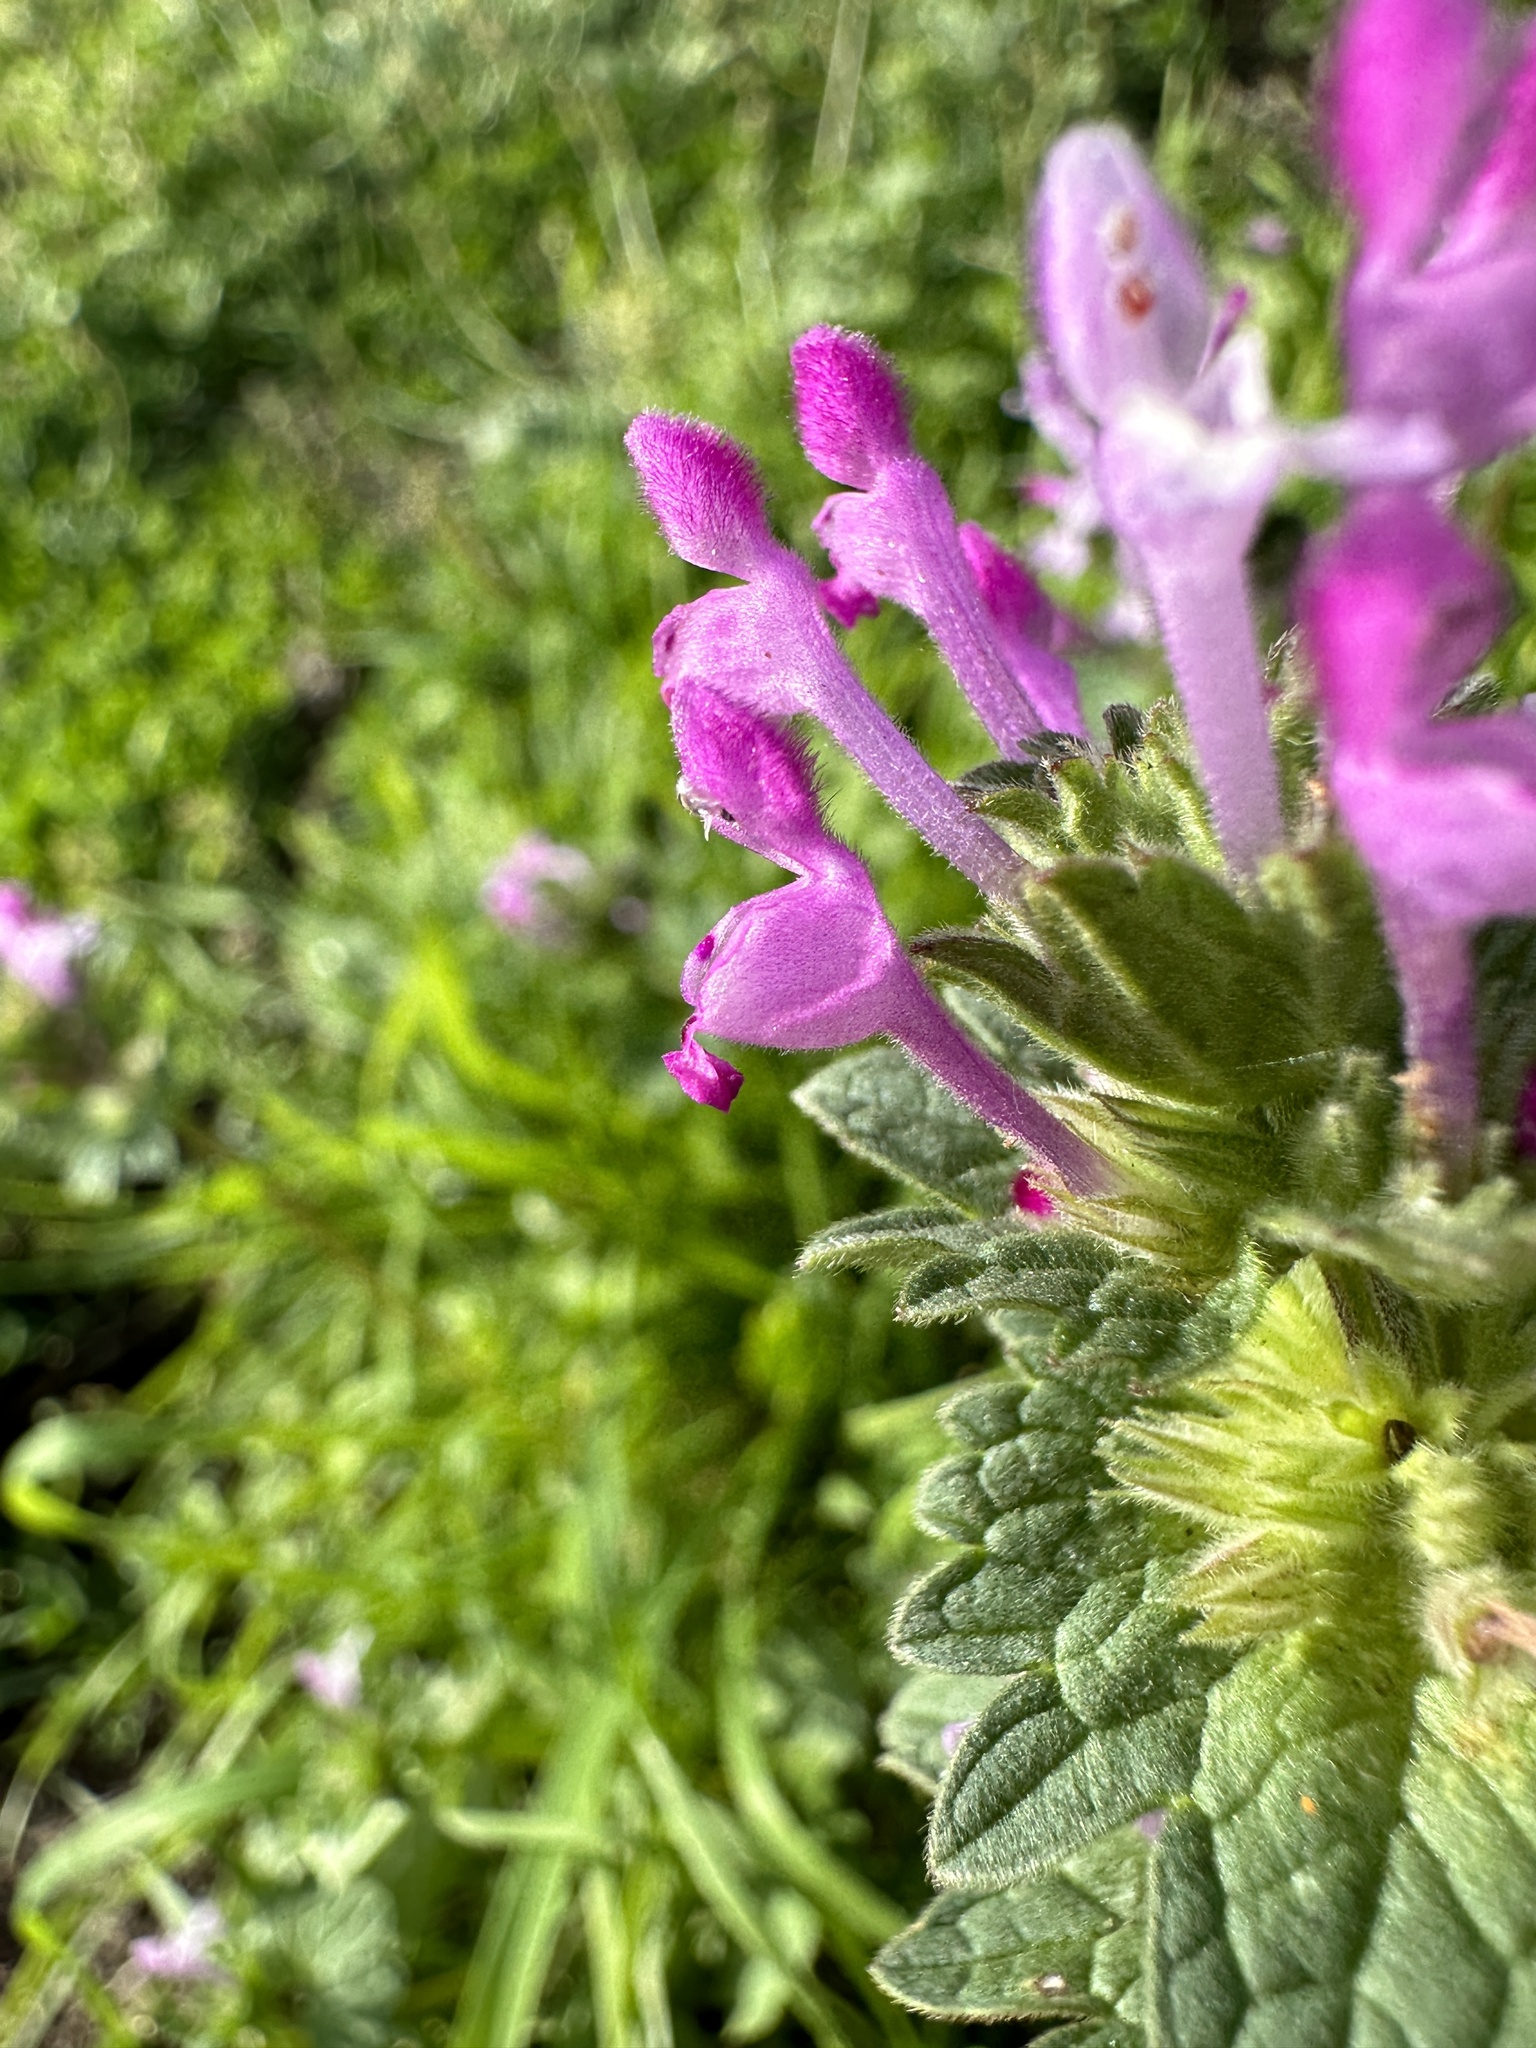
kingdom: Plantae
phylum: Tracheophyta
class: Magnoliopsida
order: Lamiales
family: Lamiaceae
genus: Lamium
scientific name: Lamium amplexicaule
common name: Henbit dead-nettle
